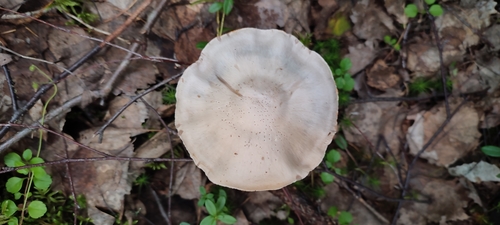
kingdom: Fungi
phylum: Basidiomycota
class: Agaricomycetes
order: Agaricales
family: Cortinariaceae
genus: Cortinarius
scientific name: Cortinarius
